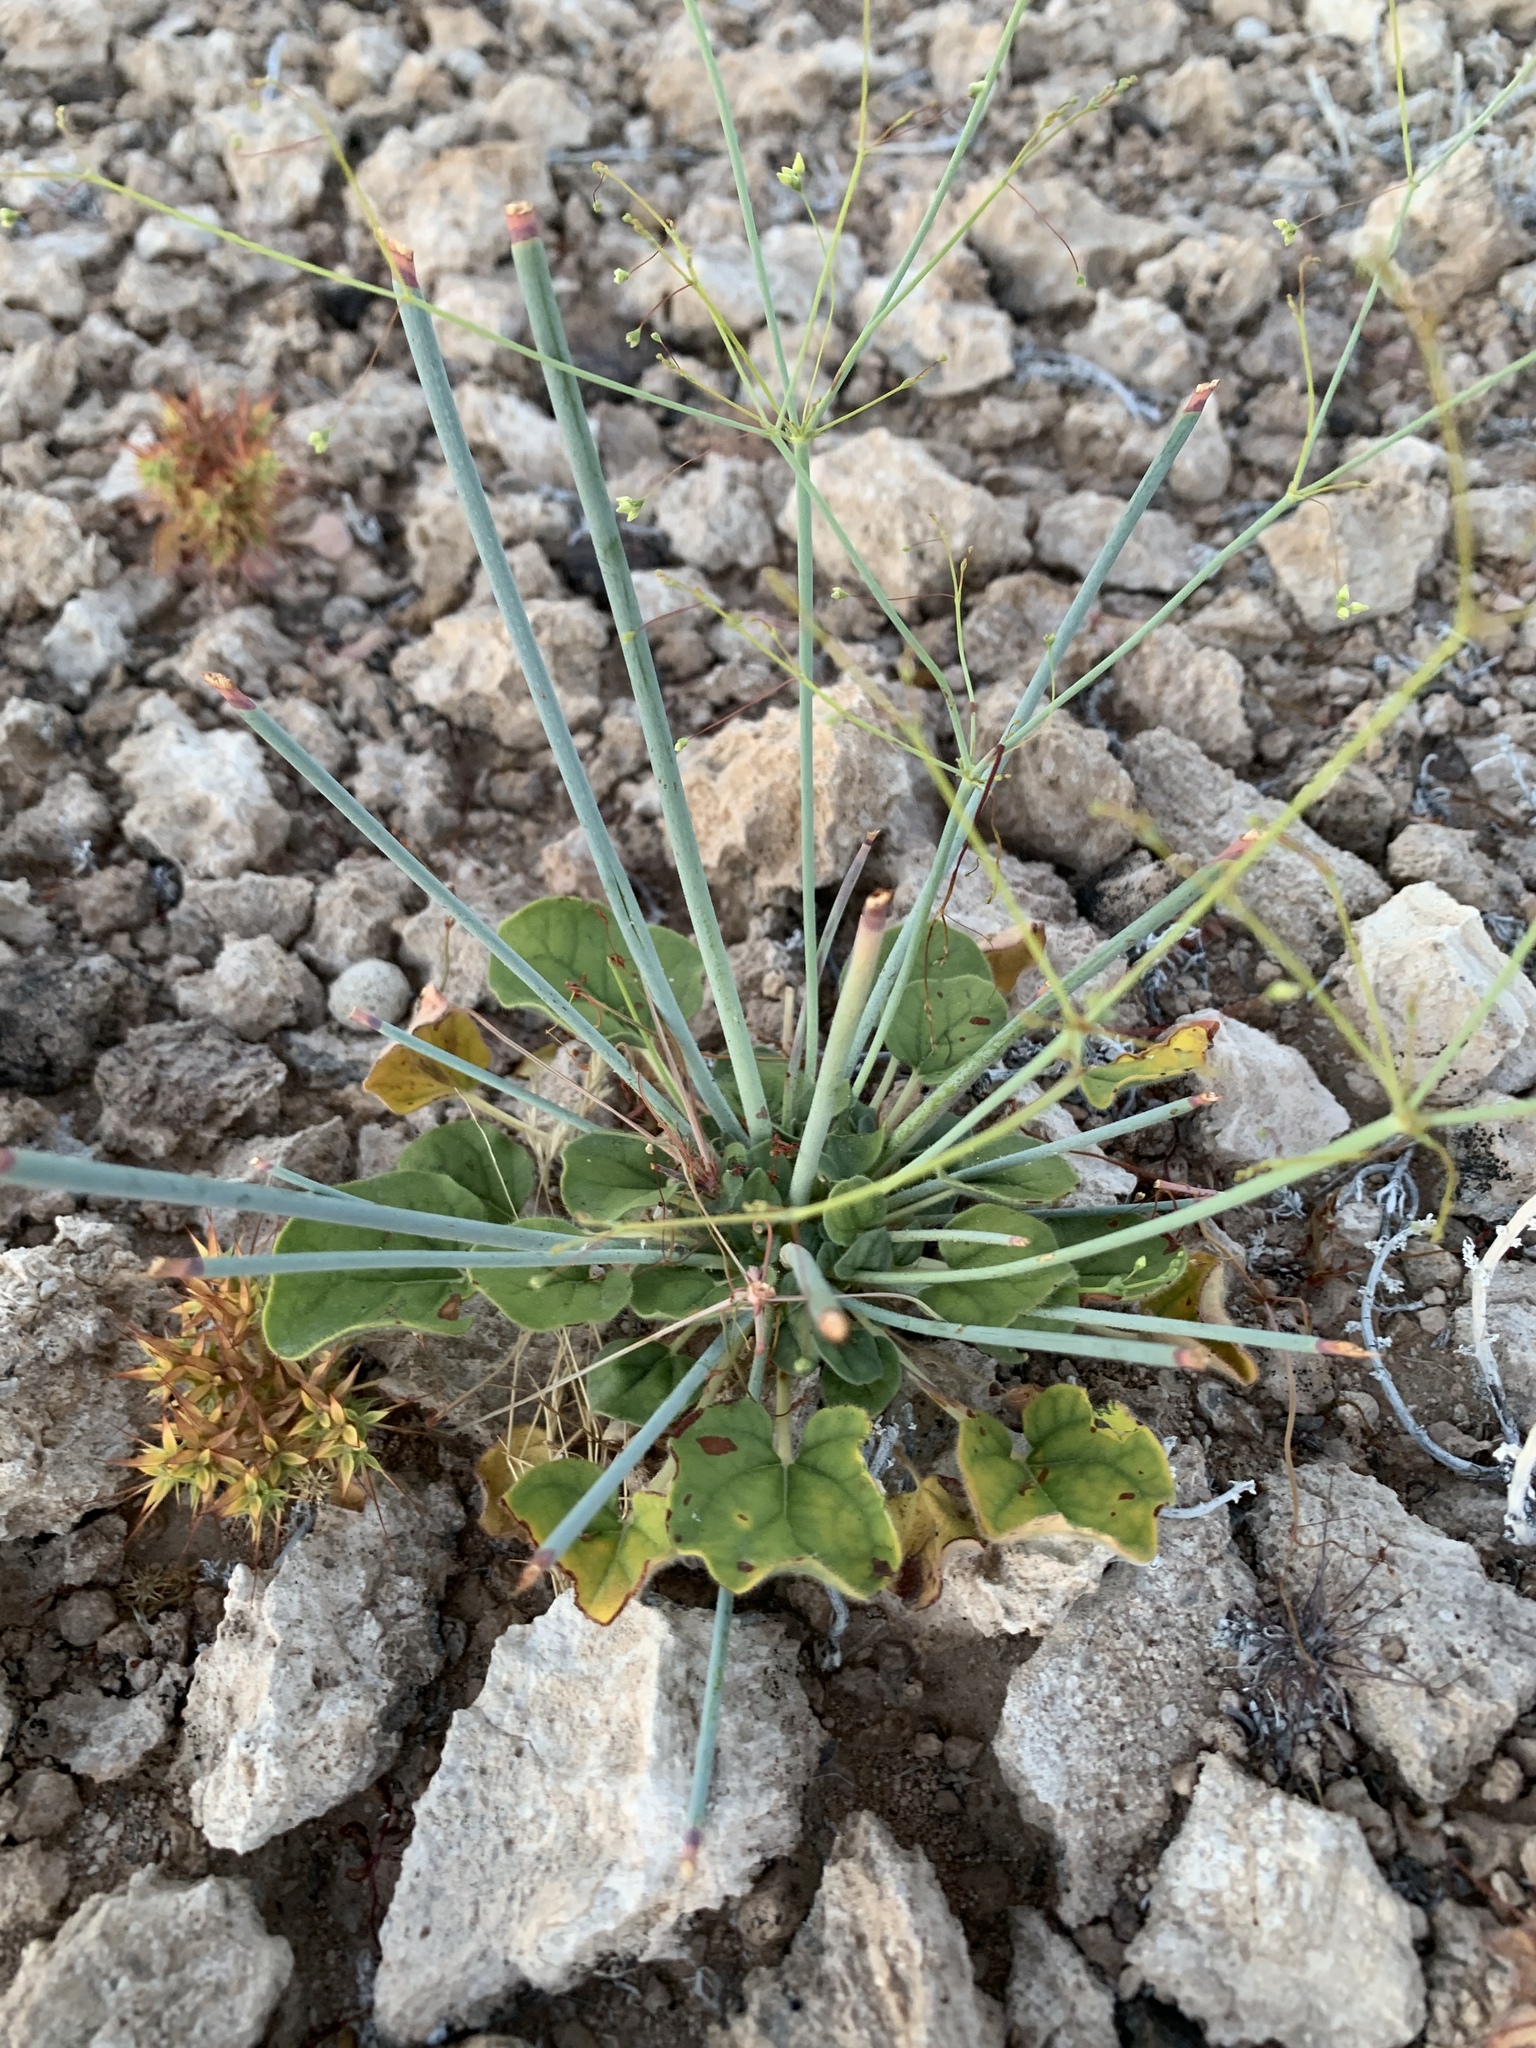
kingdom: Plantae
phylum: Tracheophyta
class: Magnoliopsida
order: Caryophyllales
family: Polygonaceae
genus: Eriogonum
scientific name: Eriogonum inflatum
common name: Desert trumpet
